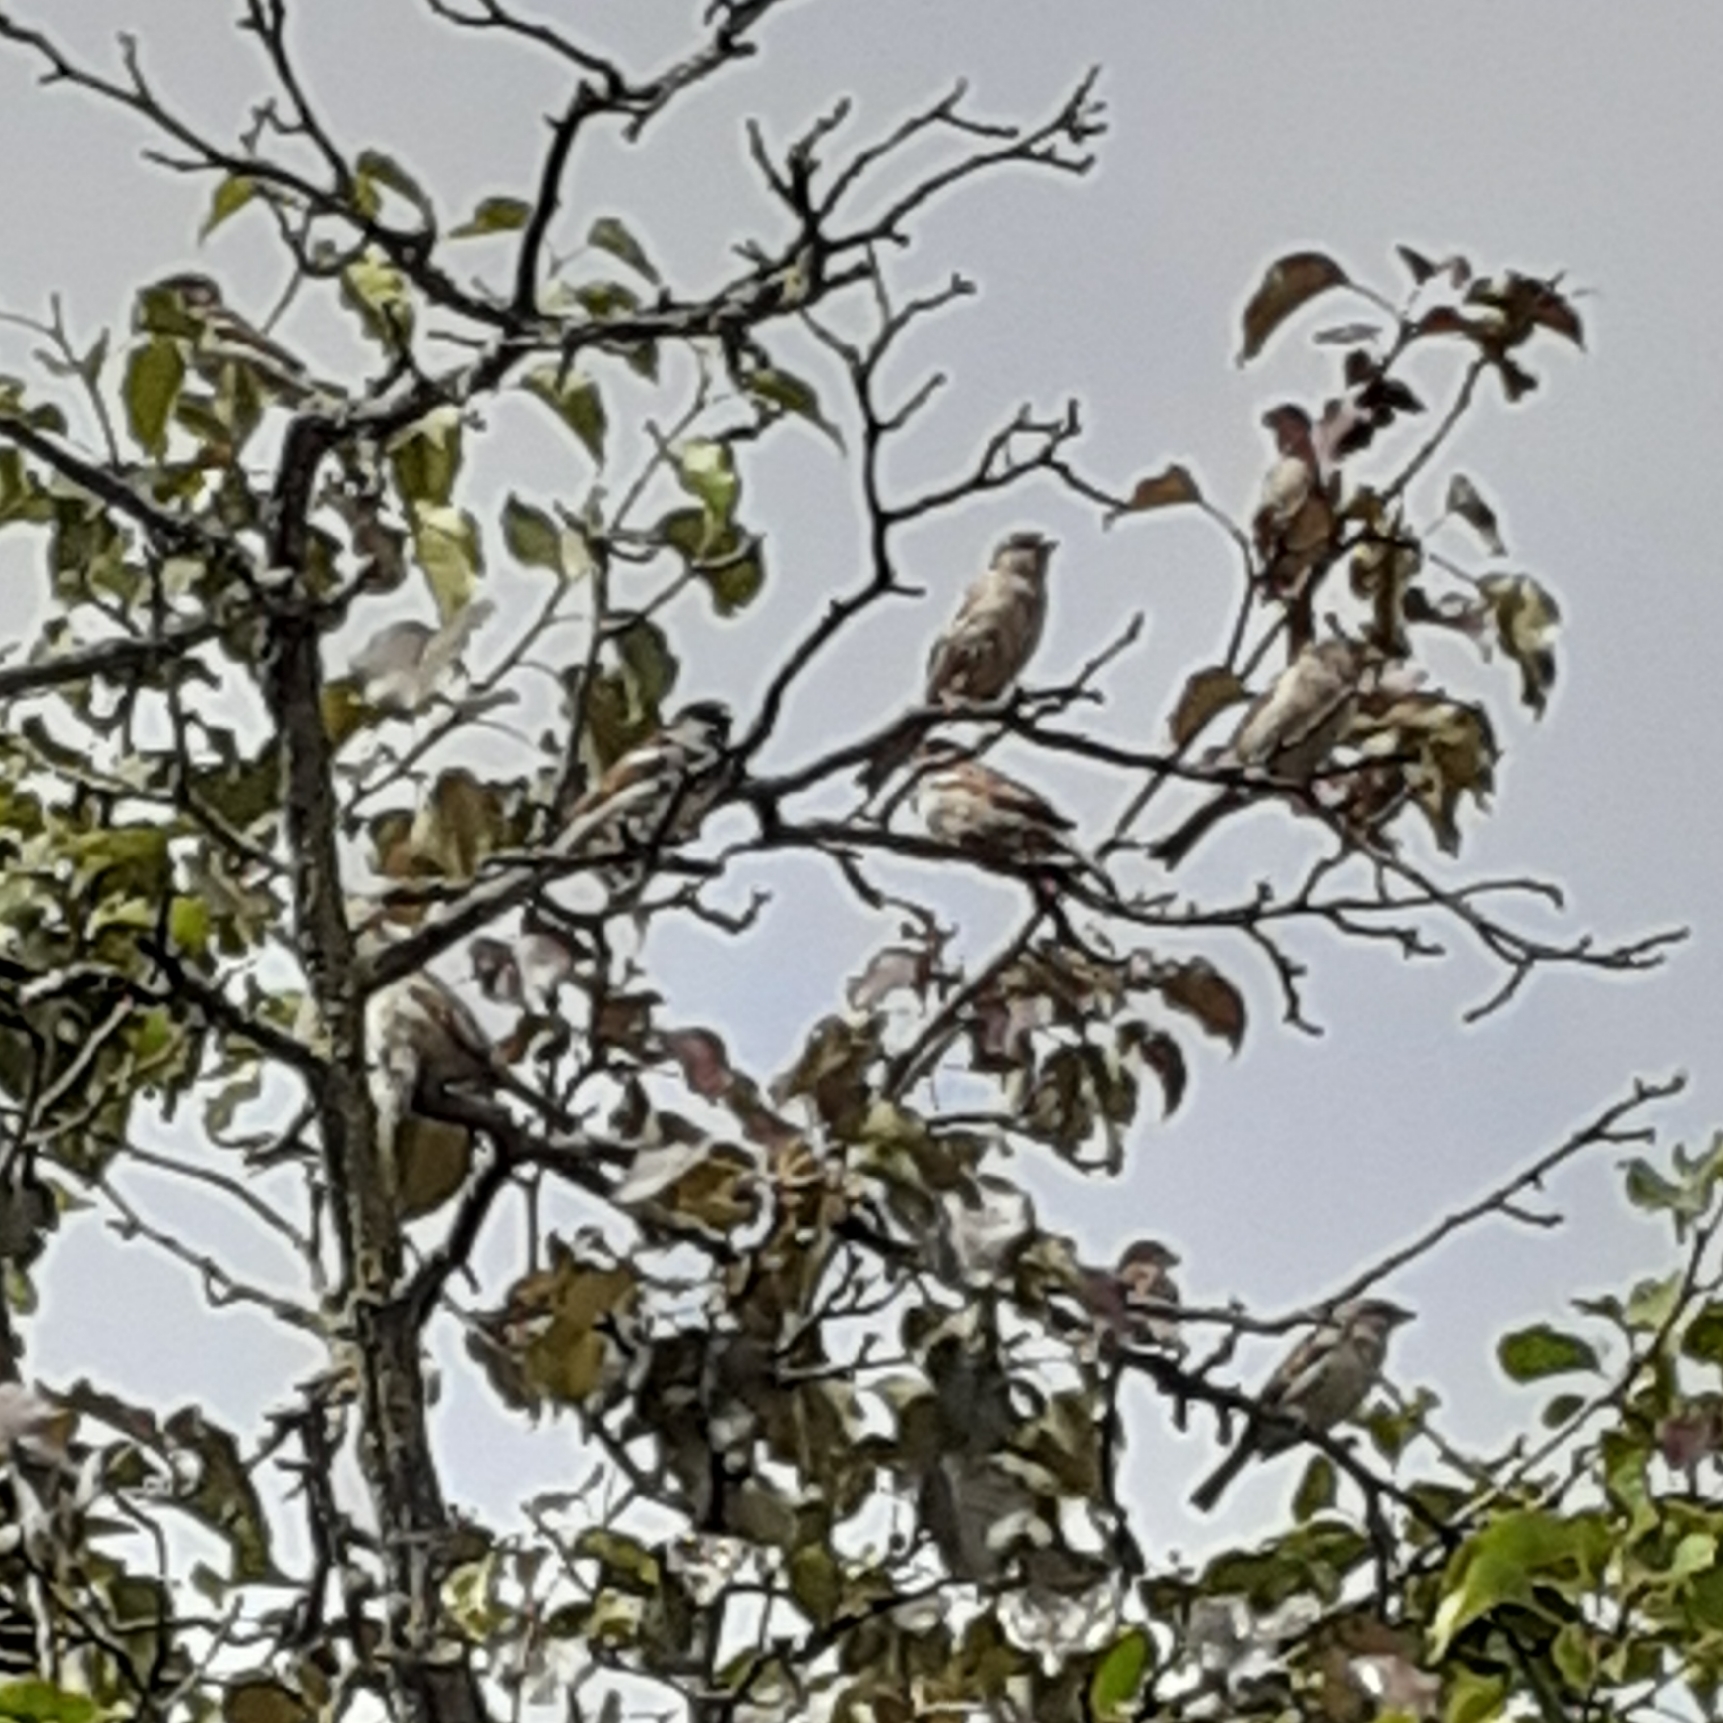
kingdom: Animalia
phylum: Chordata
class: Aves
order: Passeriformes
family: Passeridae
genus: Passer
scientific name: Passer domesticus
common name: House sparrow
